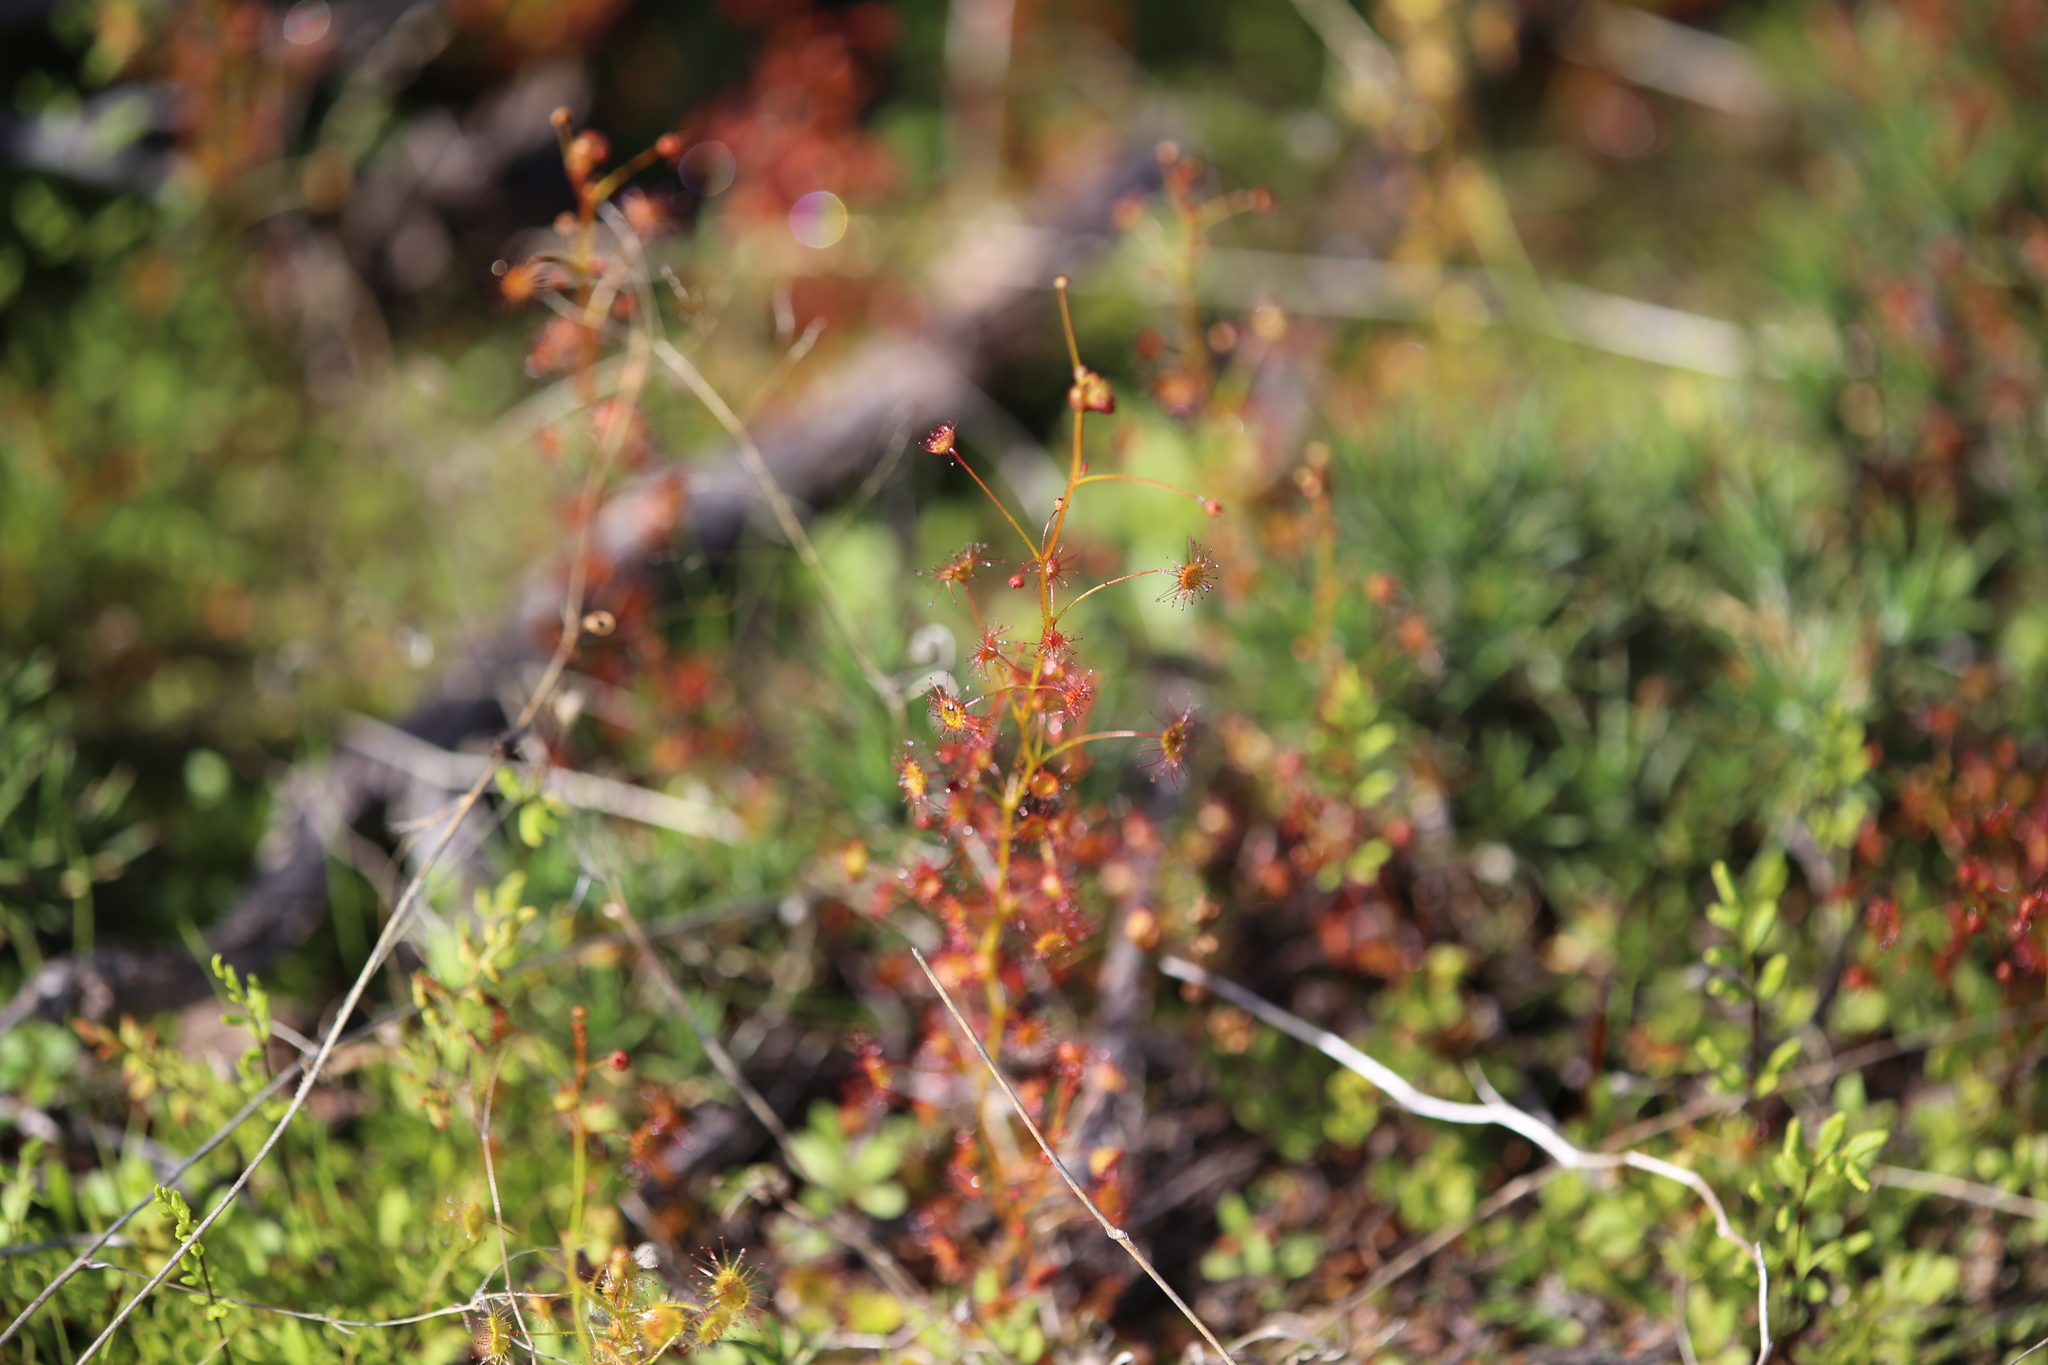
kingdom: Plantae
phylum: Tracheophyta
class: Magnoliopsida
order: Caryophyllales
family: Droseraceae
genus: Drosera
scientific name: Drosera andersoniana
